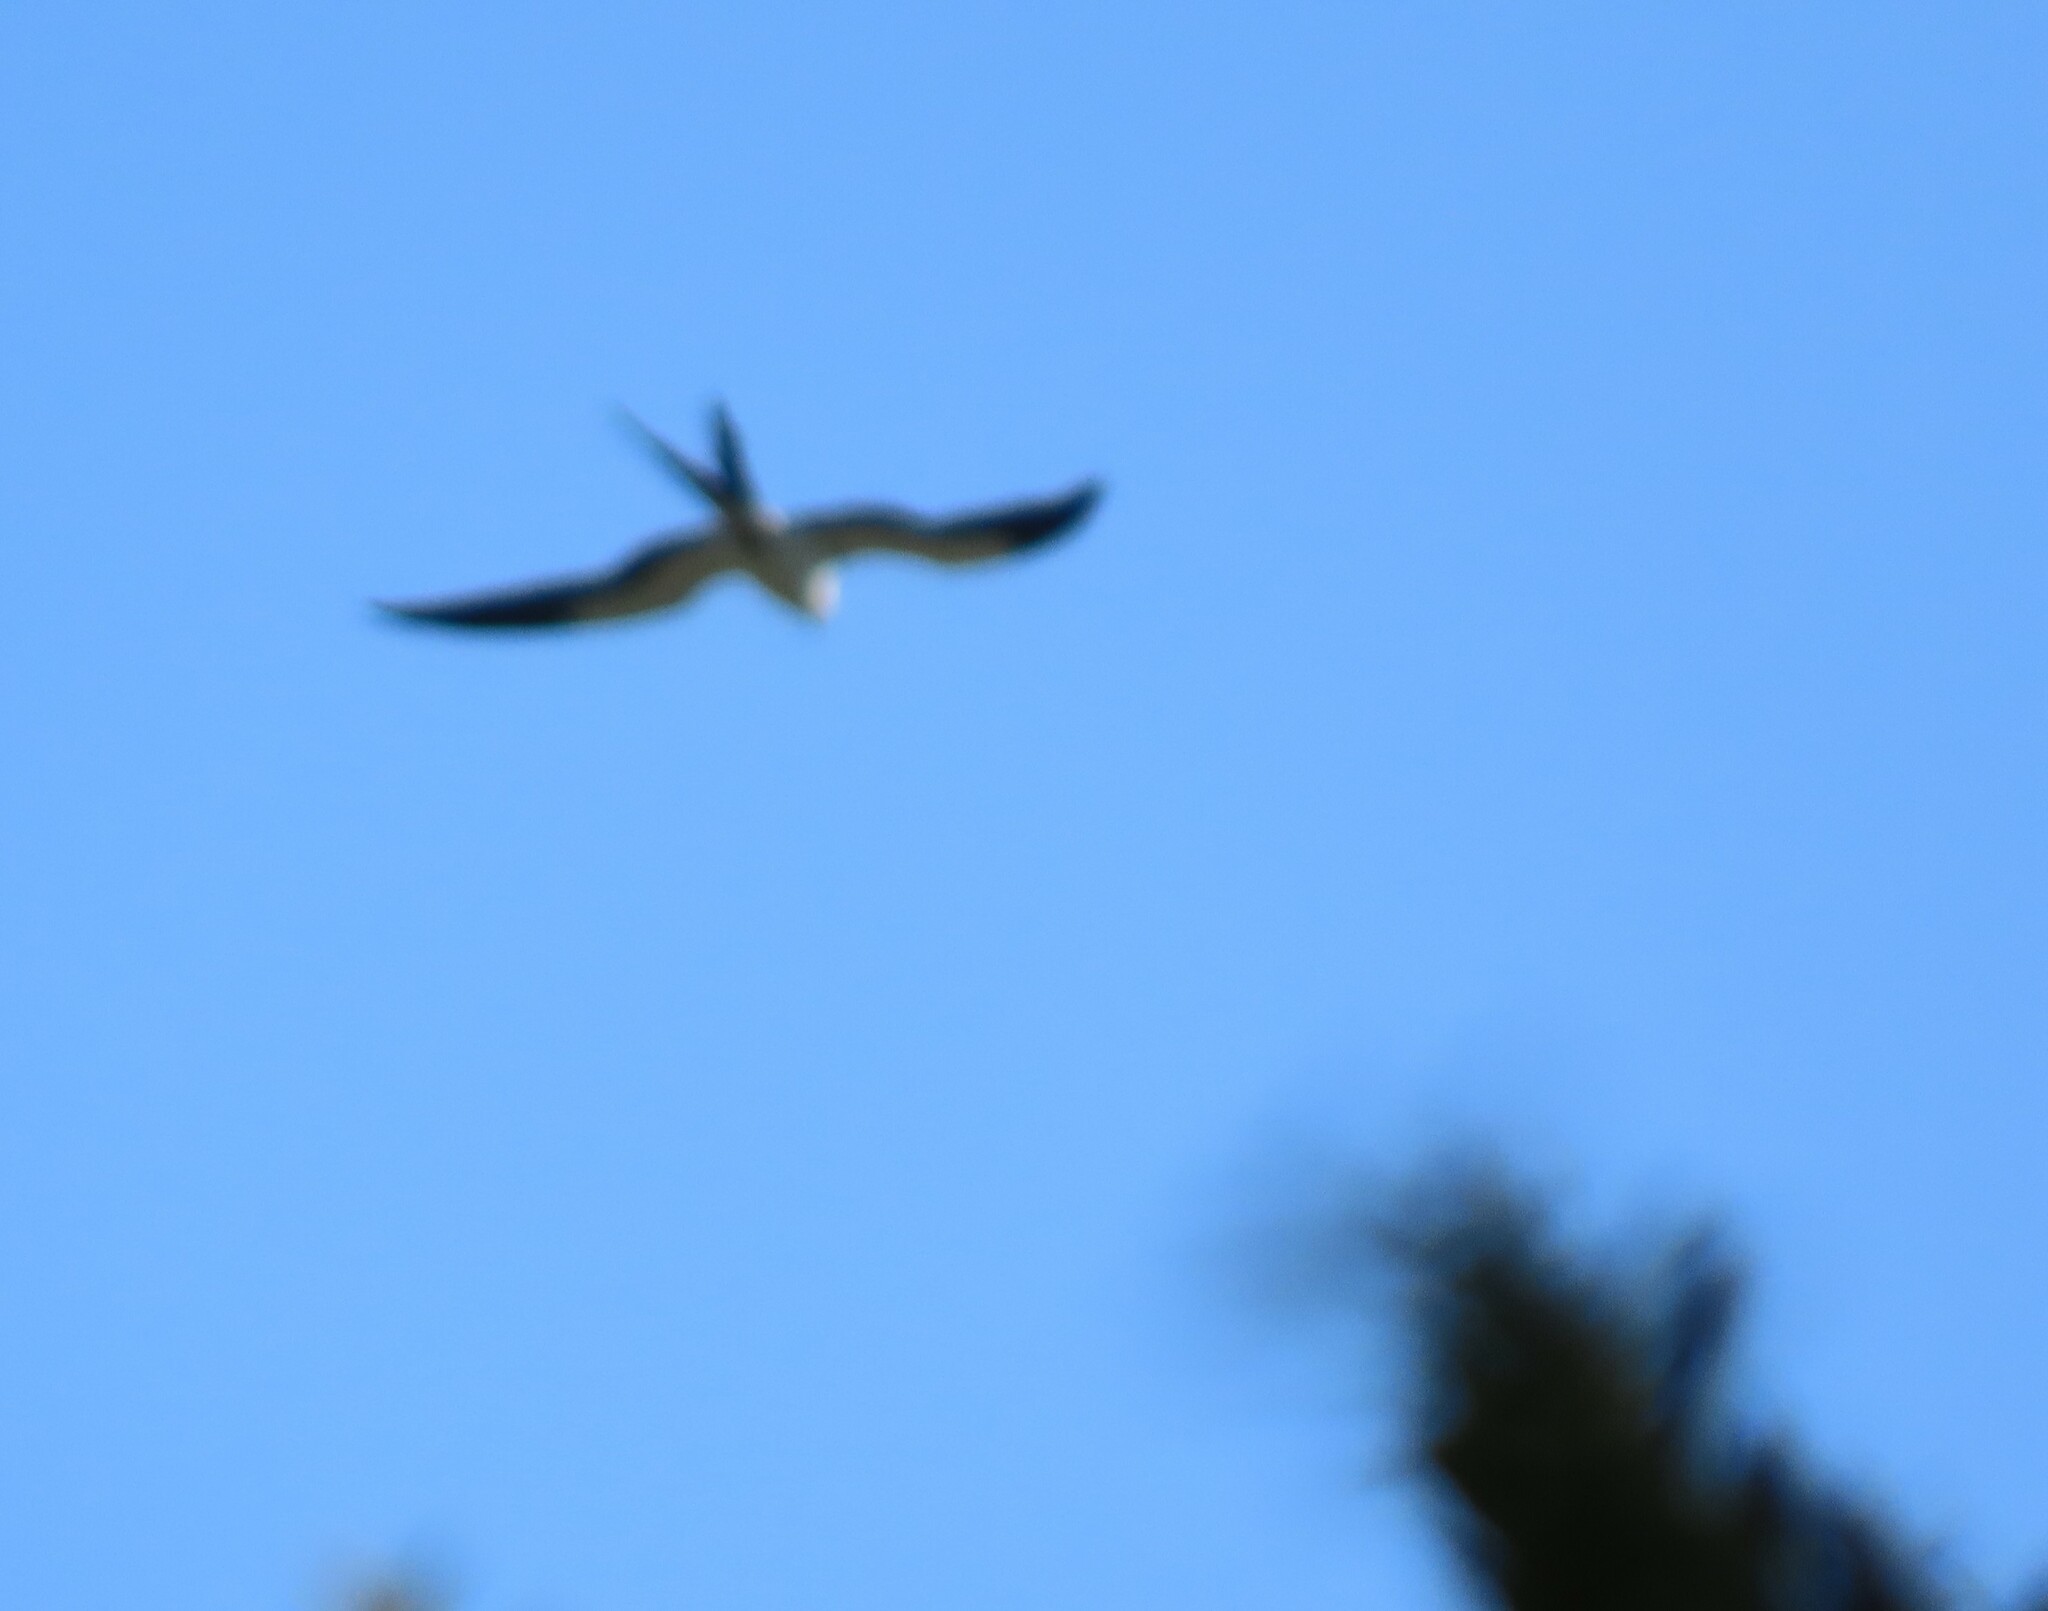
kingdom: Animalia
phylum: Chordata
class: Aves
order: Accipitriformes
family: Accipitridae
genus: Elanoides
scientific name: Elanoides forficatus
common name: Swallow-tailed kite
